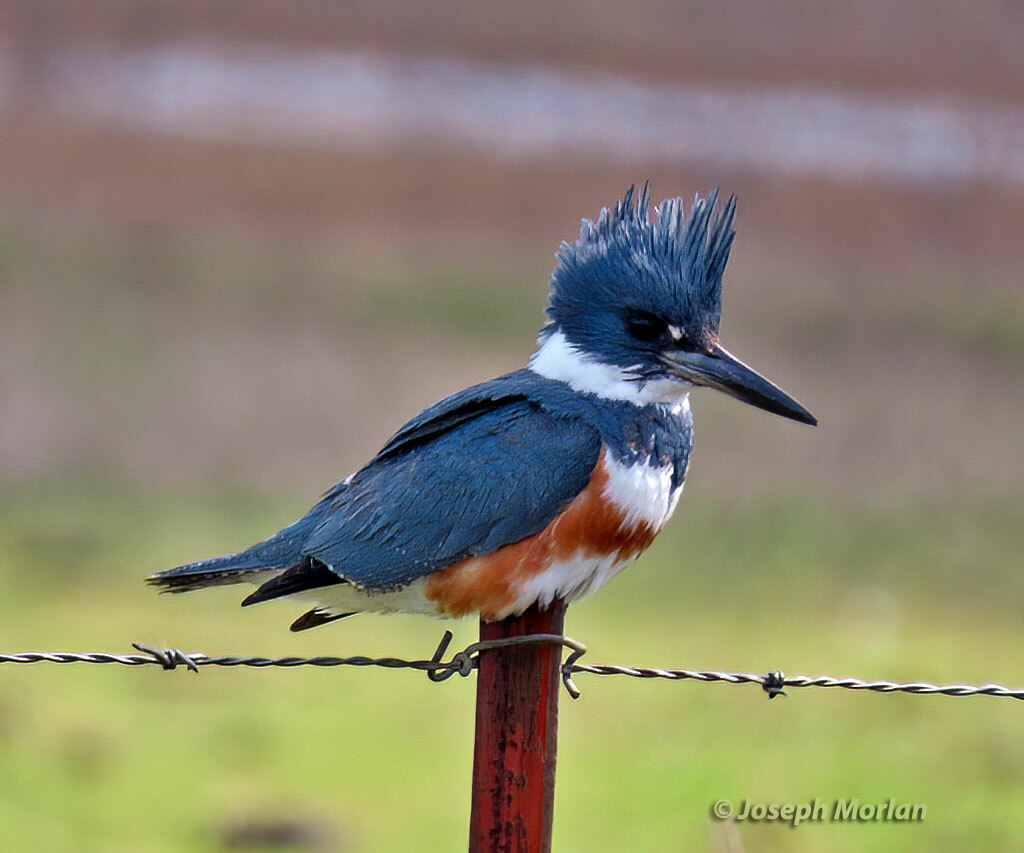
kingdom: Animalia
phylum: Chordata
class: Aves
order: Coraciiformes
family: Alcedinidae
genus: Megaceryle
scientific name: Megaceryle alcyon
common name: Belted kingfisher
